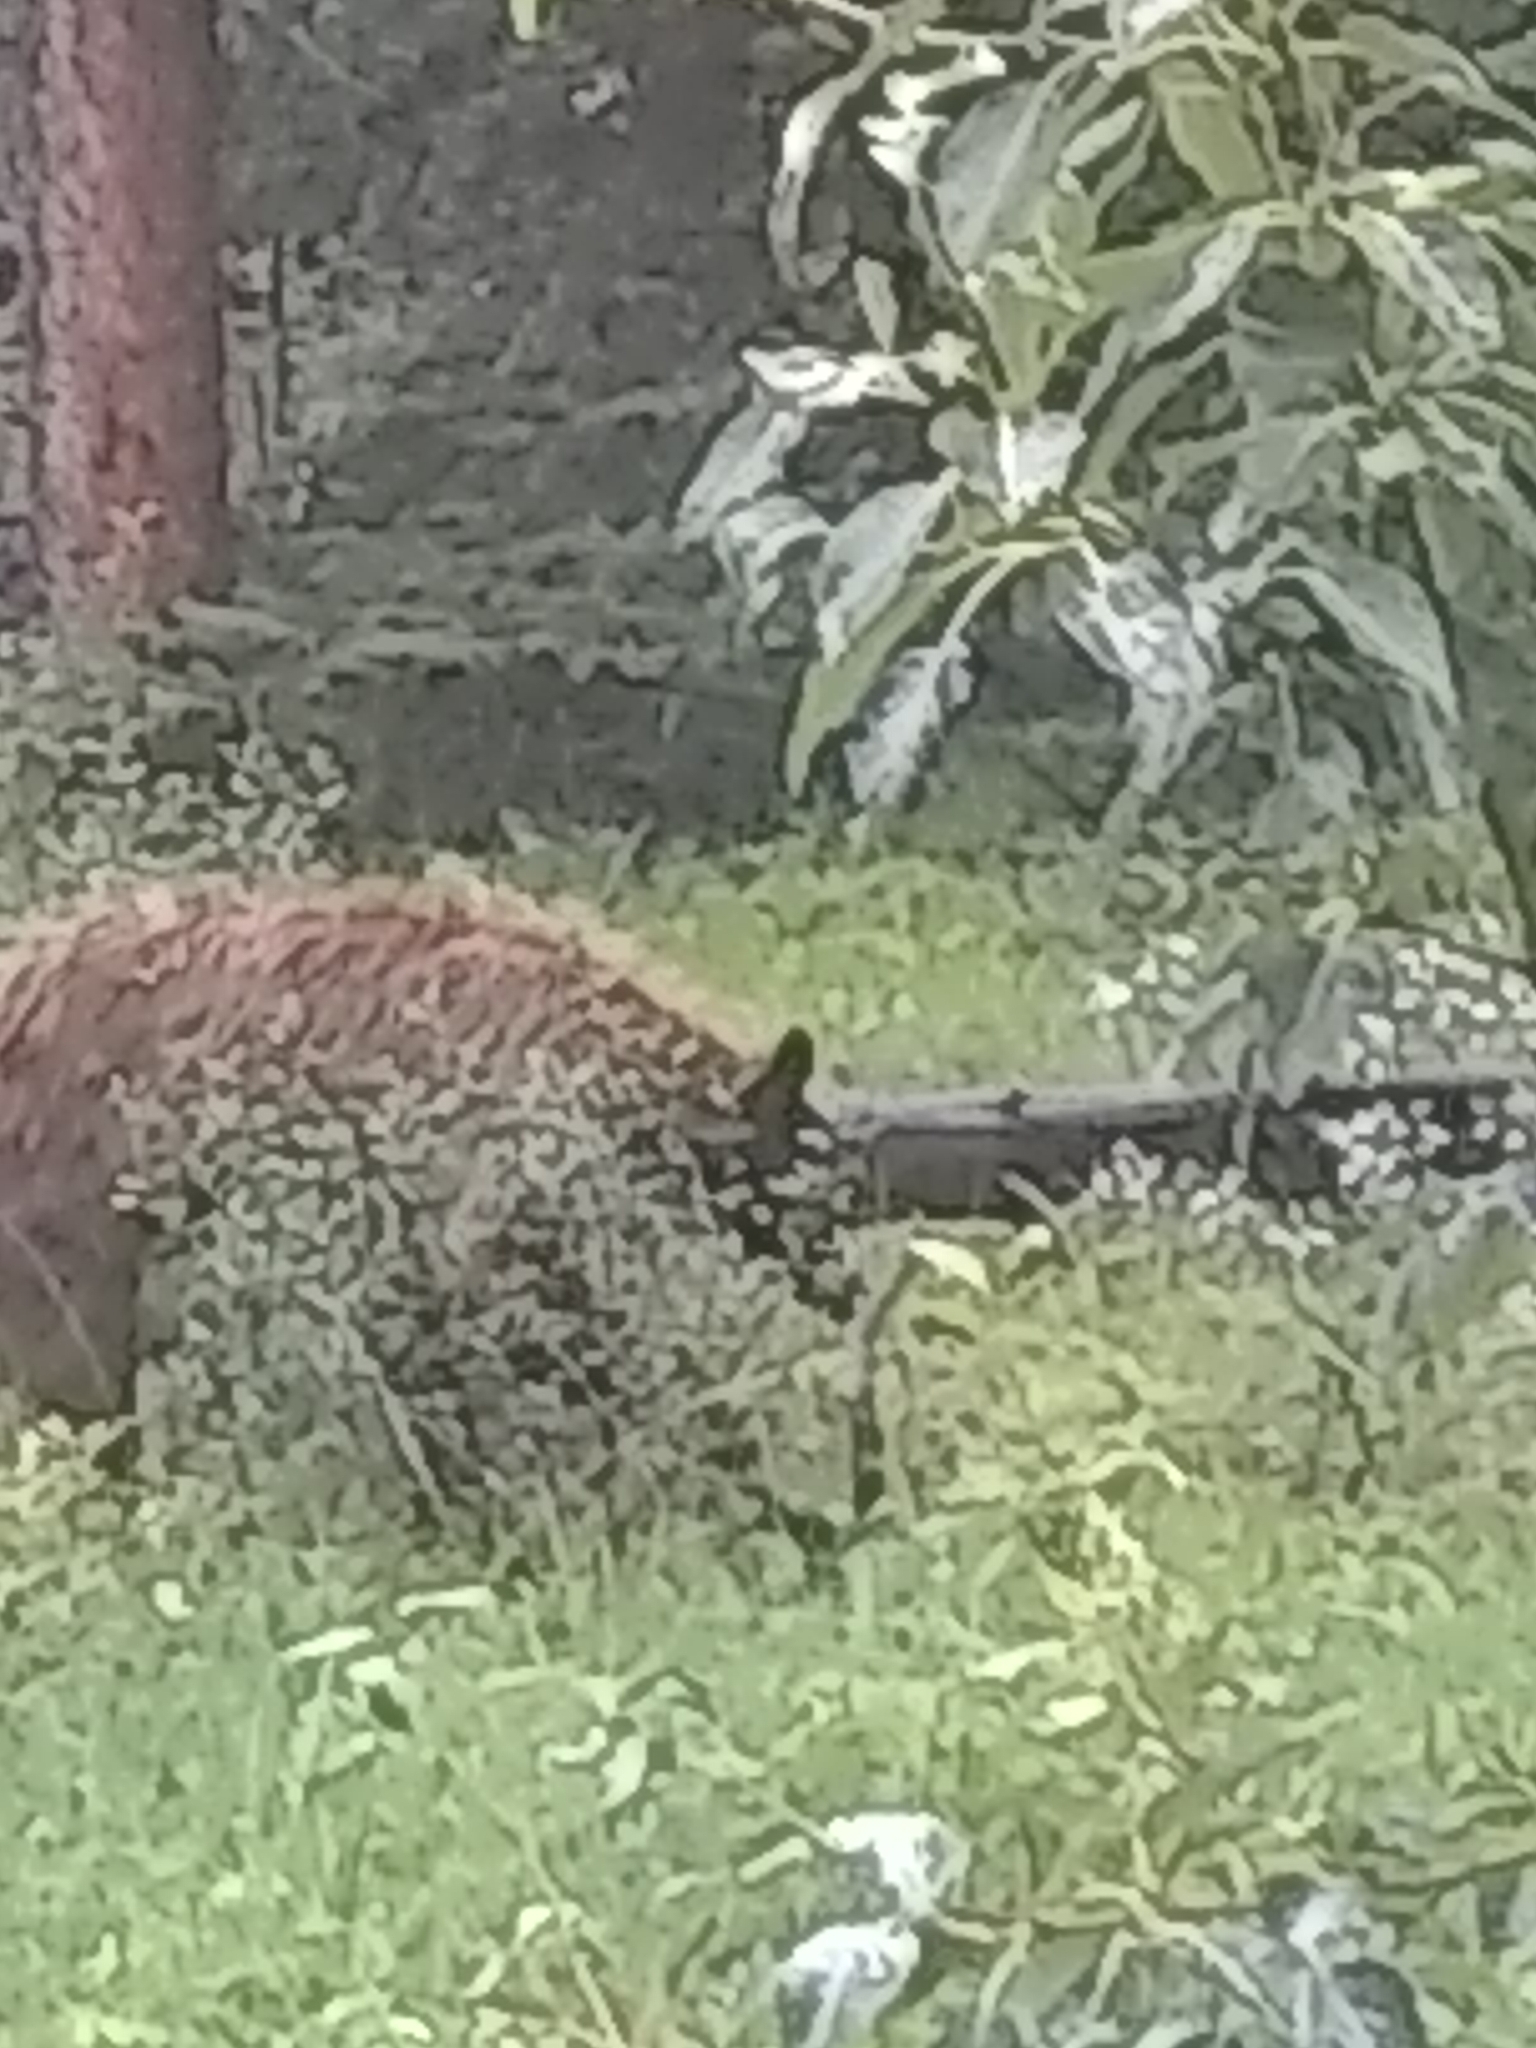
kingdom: Animalia
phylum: Chordata
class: Mammalia
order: Carnivora
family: Ursidae
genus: Ursus
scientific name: Ursus americanus
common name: American black bear
